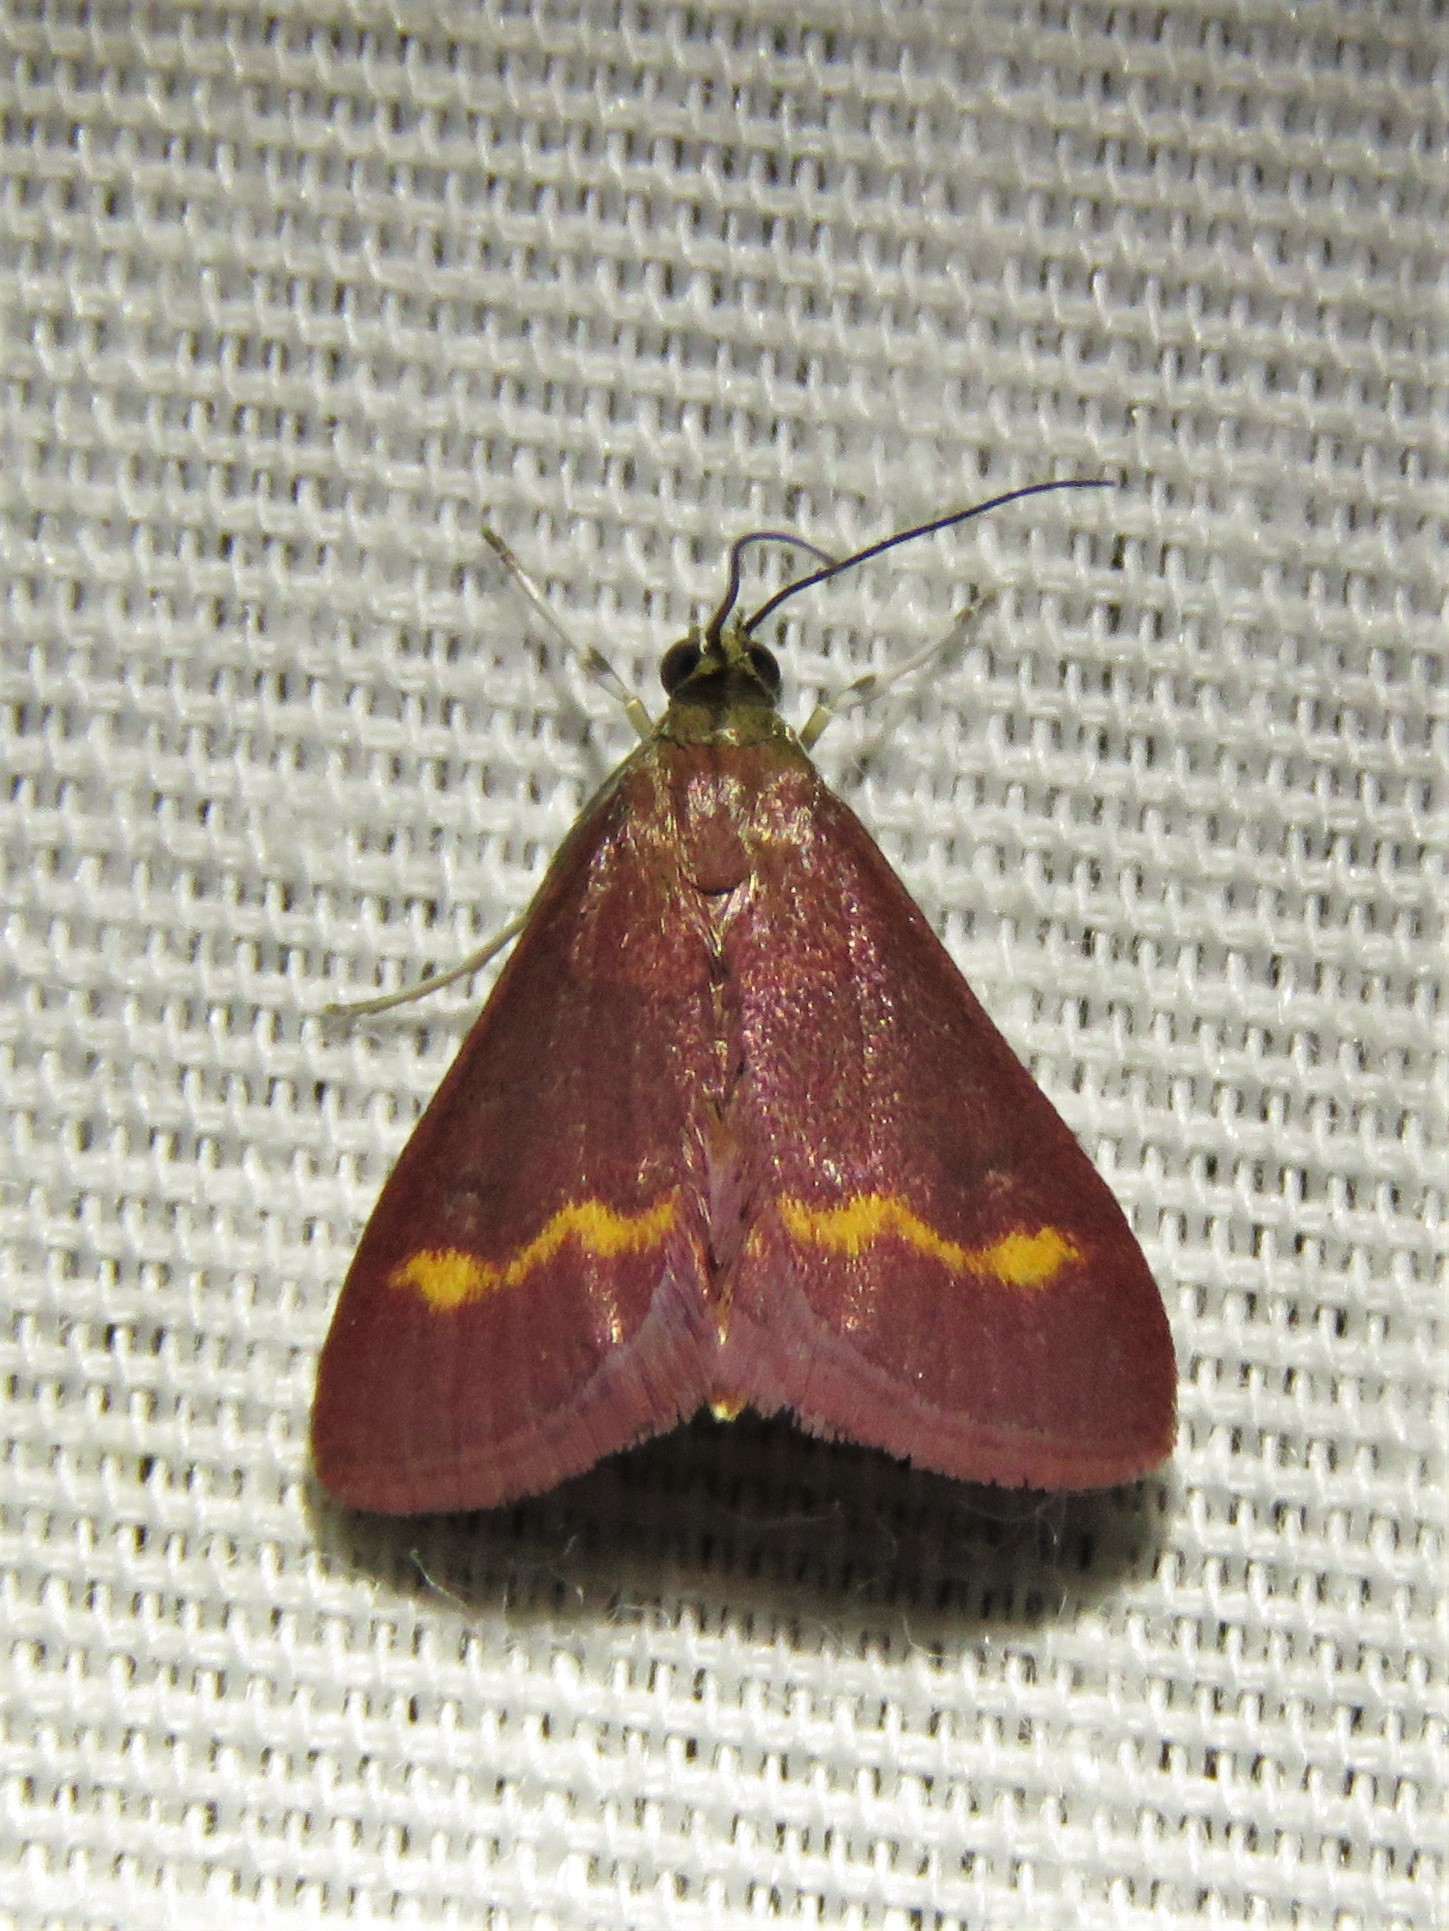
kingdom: Animalia
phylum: Arthropoda
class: Insecta
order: Lepidoptera
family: Crambidae
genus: Pyrausta
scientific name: Pyrausta pseuderosnealis
